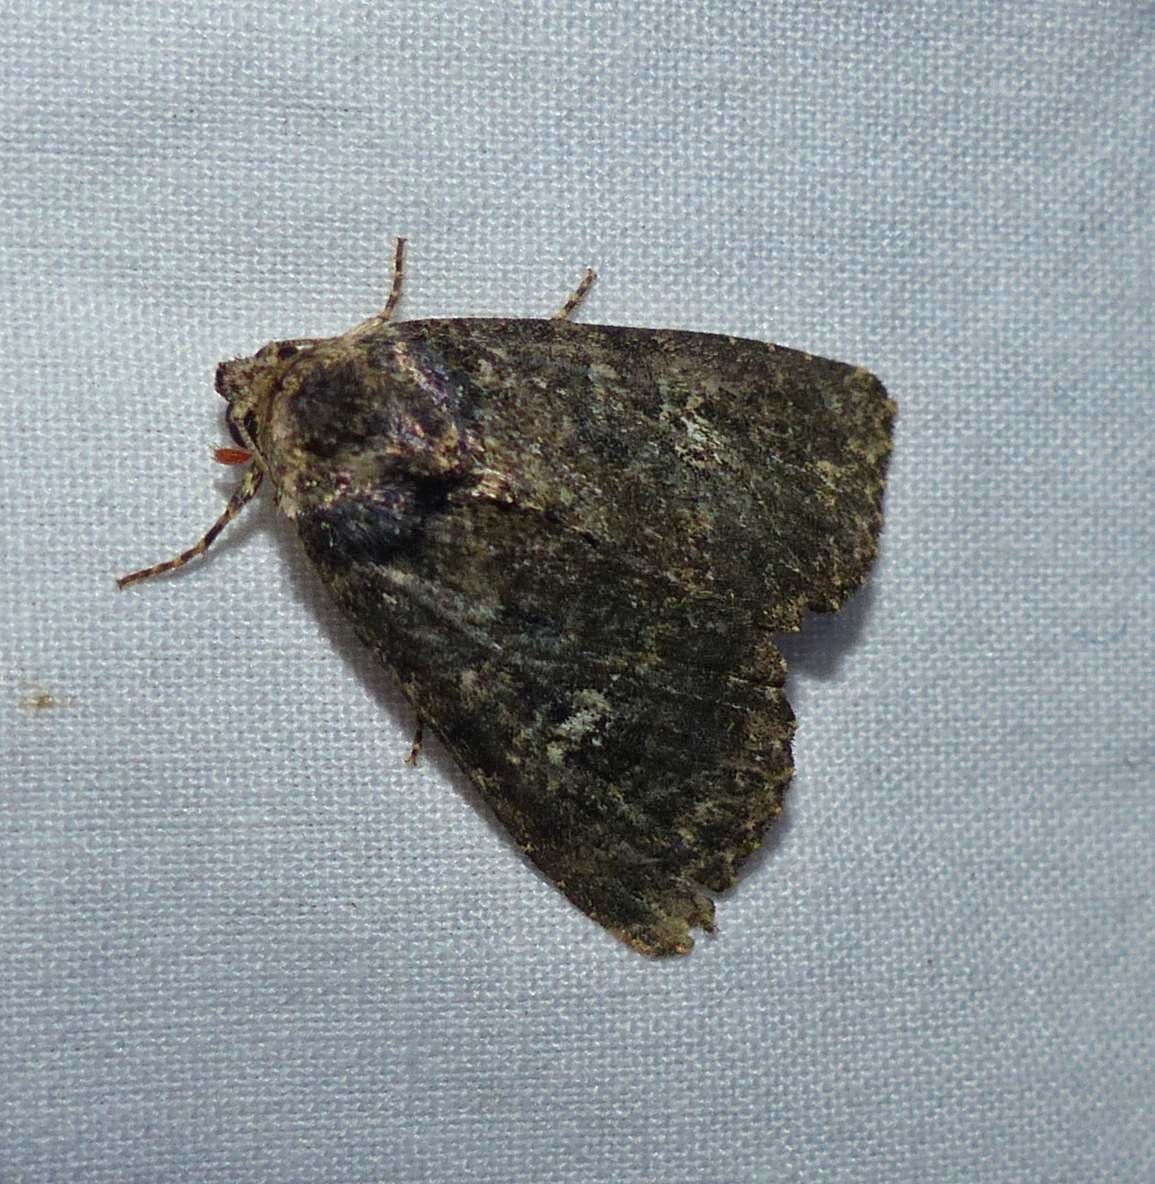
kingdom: Animalia
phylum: Arthropoda
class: Insecta
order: Lepidoptera
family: Noctuidae
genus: Condica
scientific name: Condica vecors
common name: Dusky groundling
